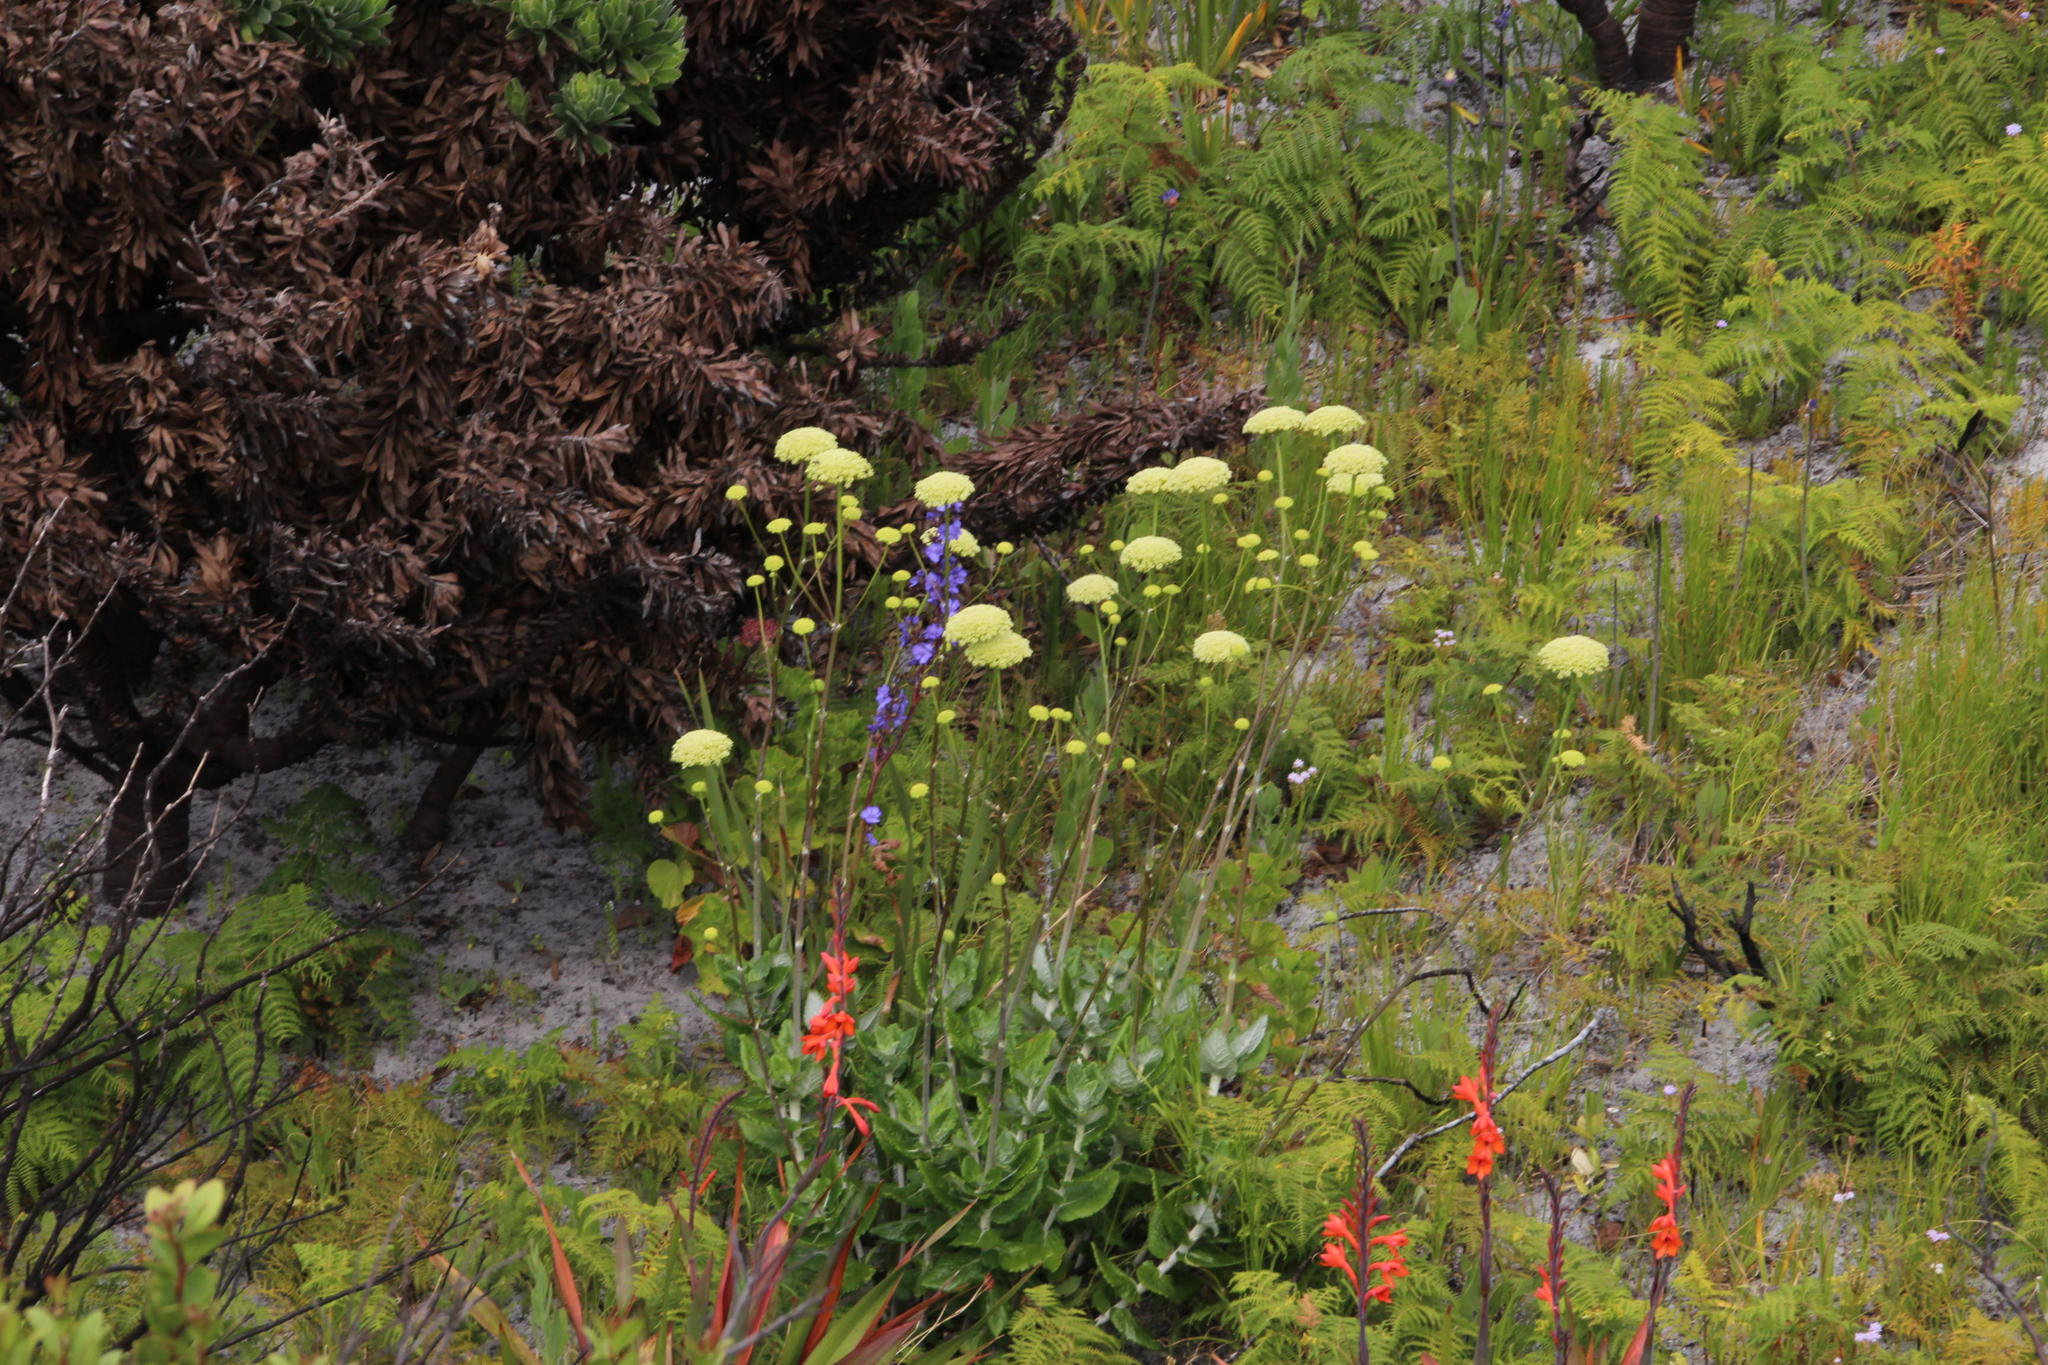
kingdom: Plantae
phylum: Tracheophyta
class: Magnoliopsida
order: Apiales
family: Apiaceae
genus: Hermas
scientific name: Hermas villosa
